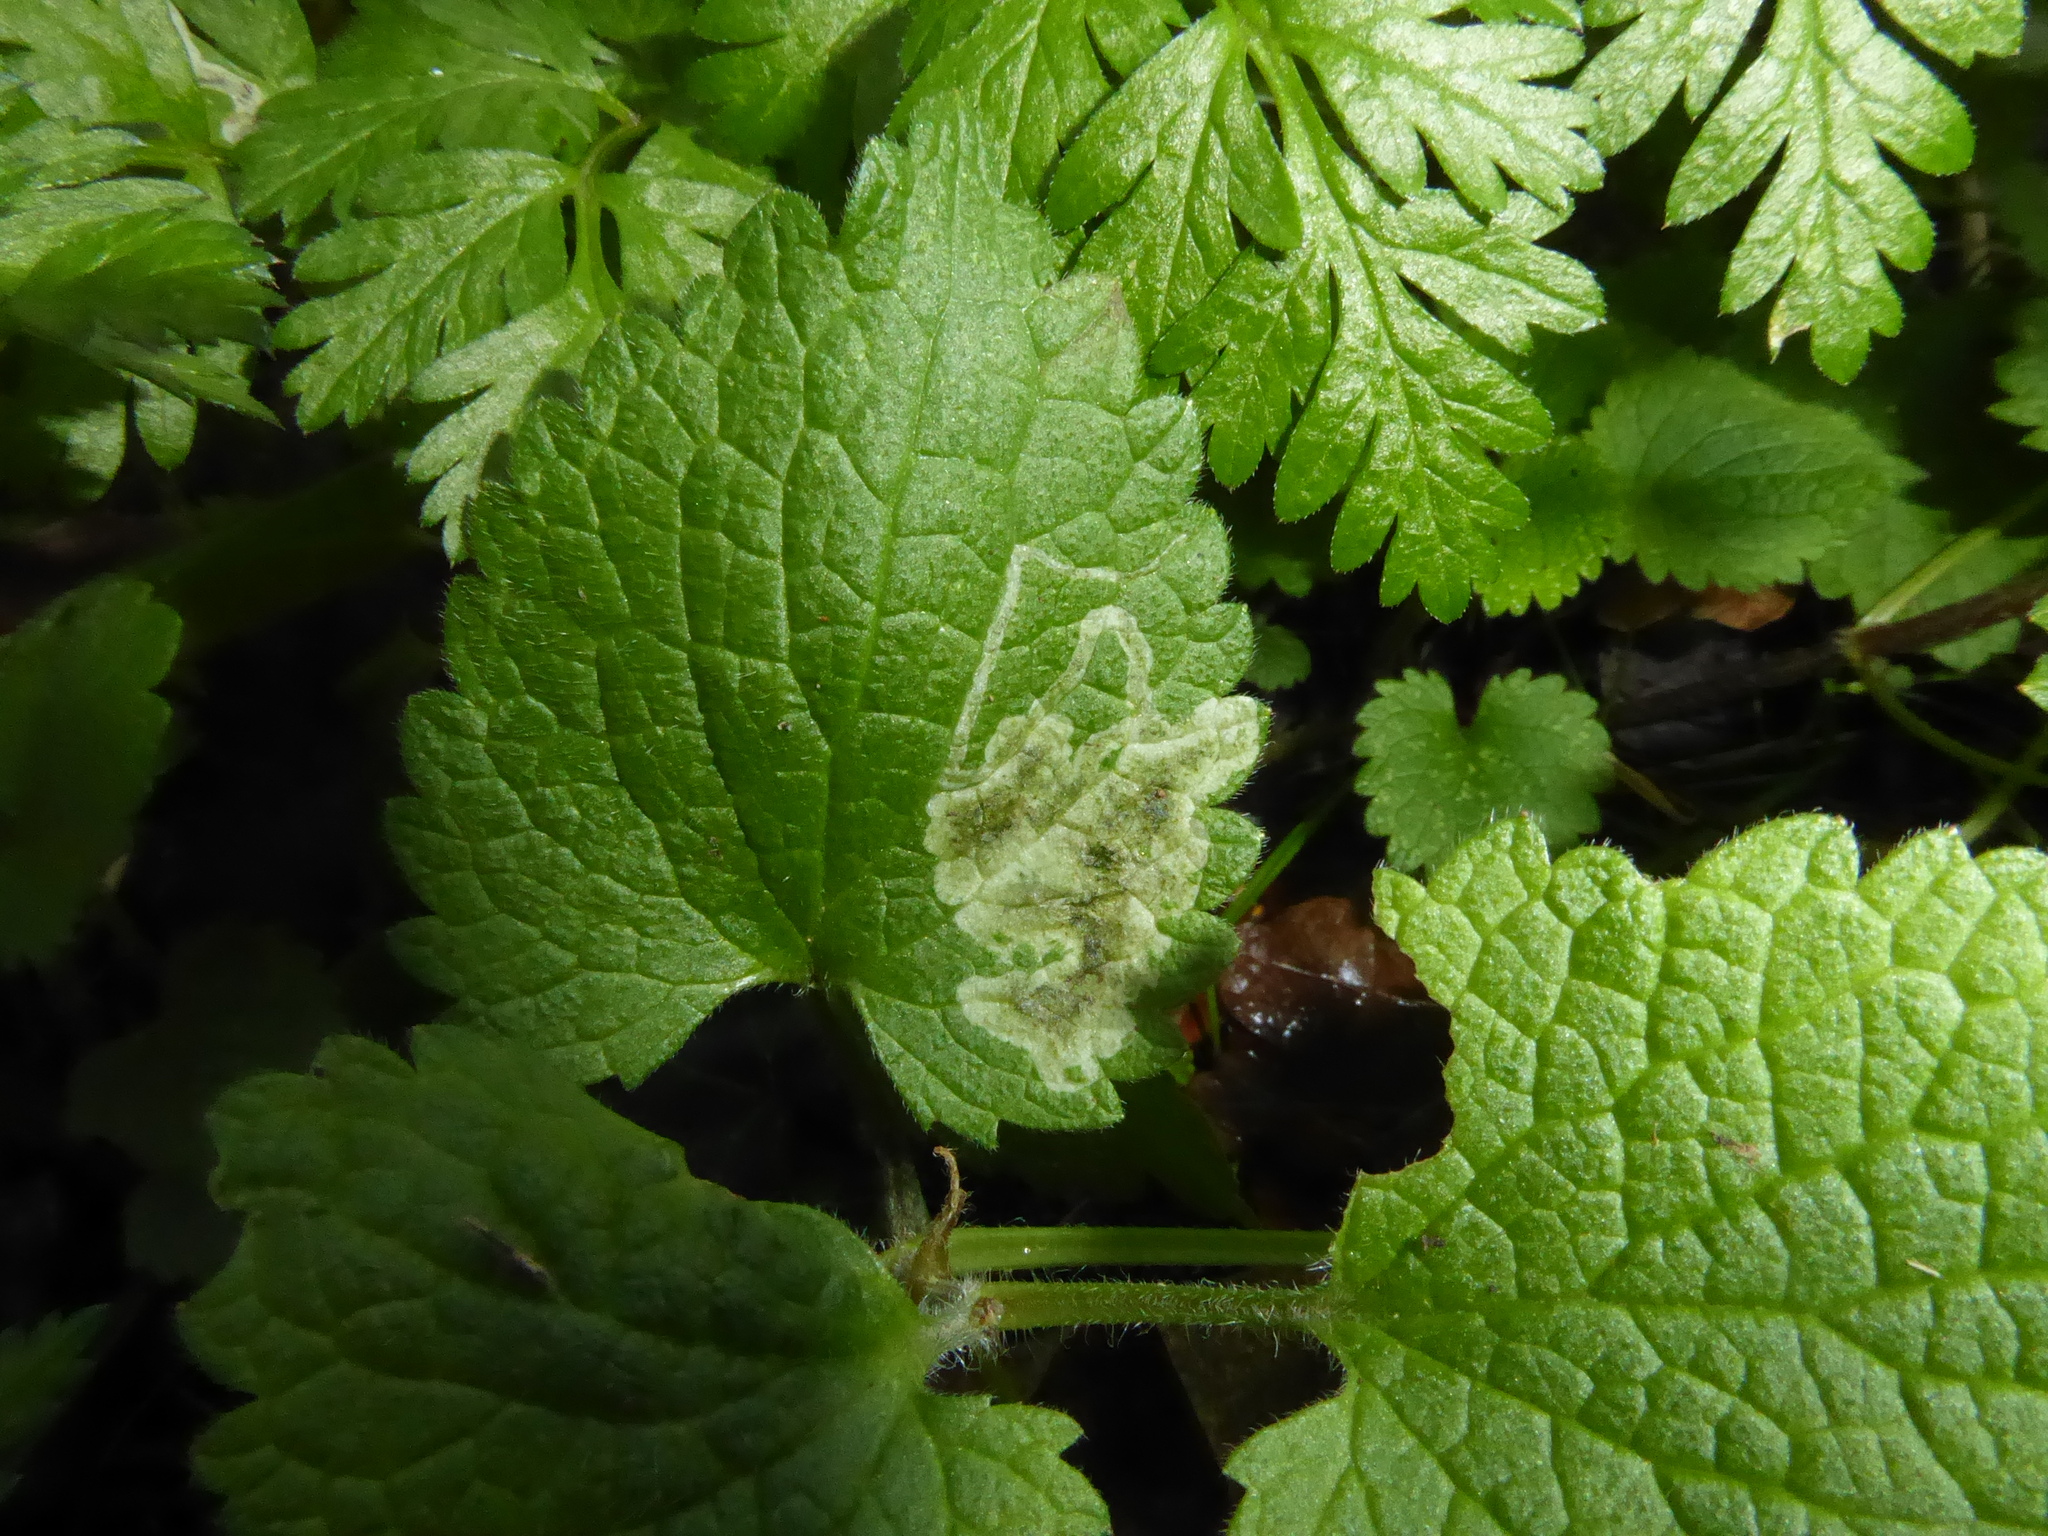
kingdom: Animalia
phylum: Arthropoda
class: Insecta
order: Diptera
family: Agromyzidae
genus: Amauromyza
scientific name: Amauromyza labiatarum
